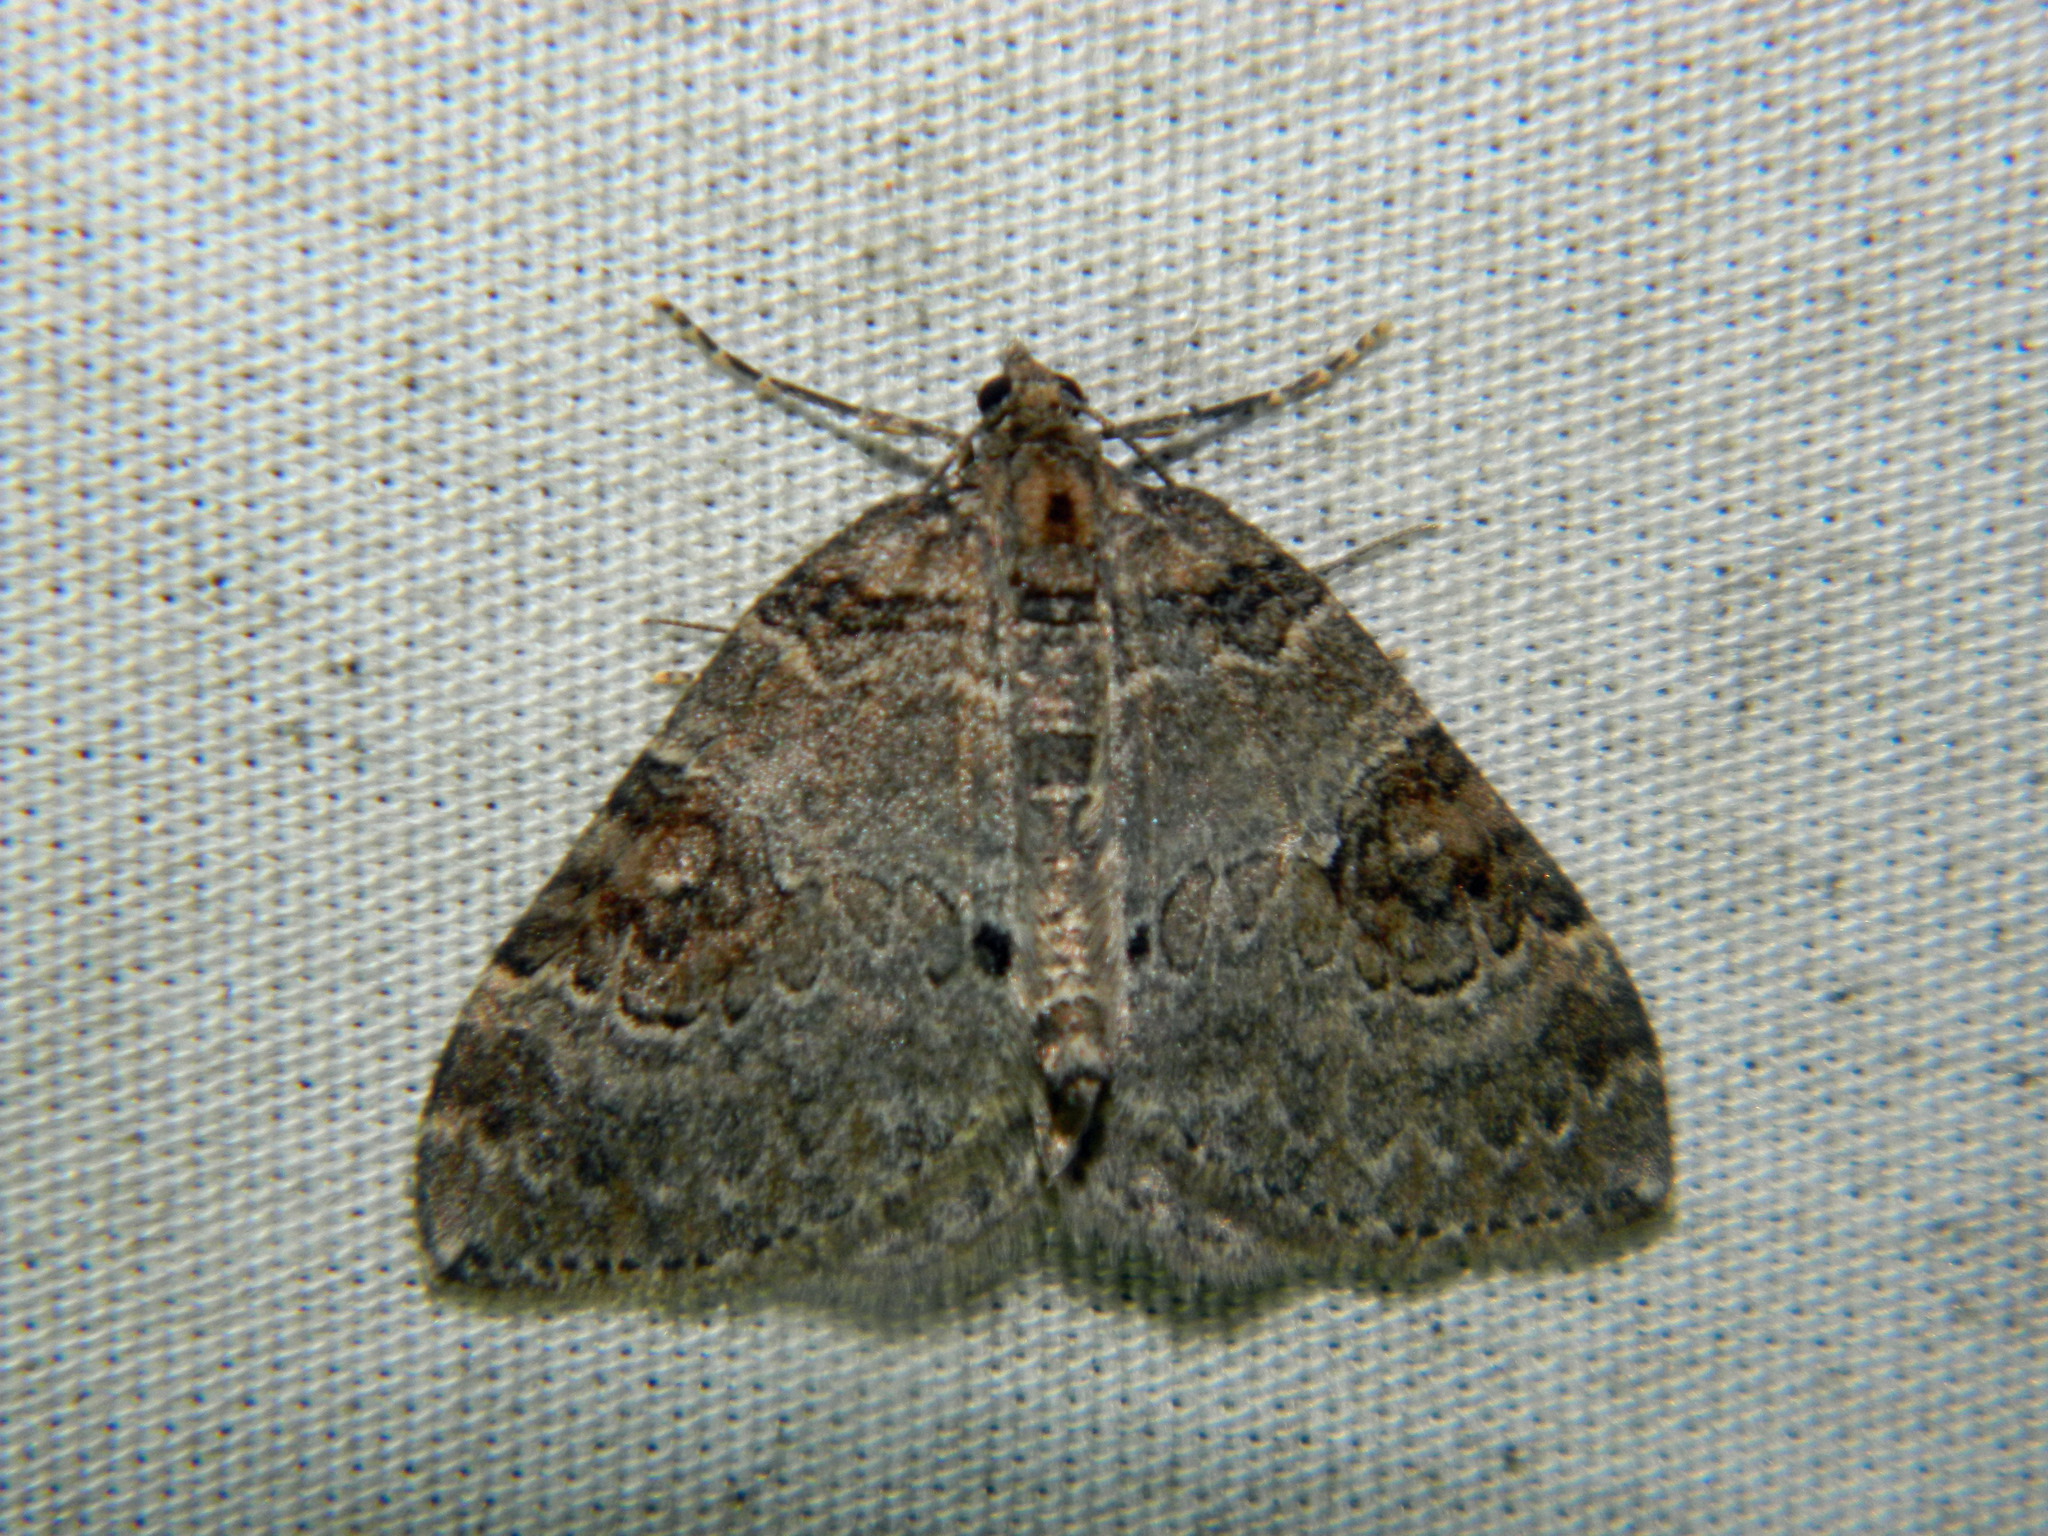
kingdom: Animalia
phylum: Arthropoda
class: Insecta
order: Lepidoptera
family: Geometridae
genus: Plemyria
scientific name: Plemyria georgii
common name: George's carpet moth
